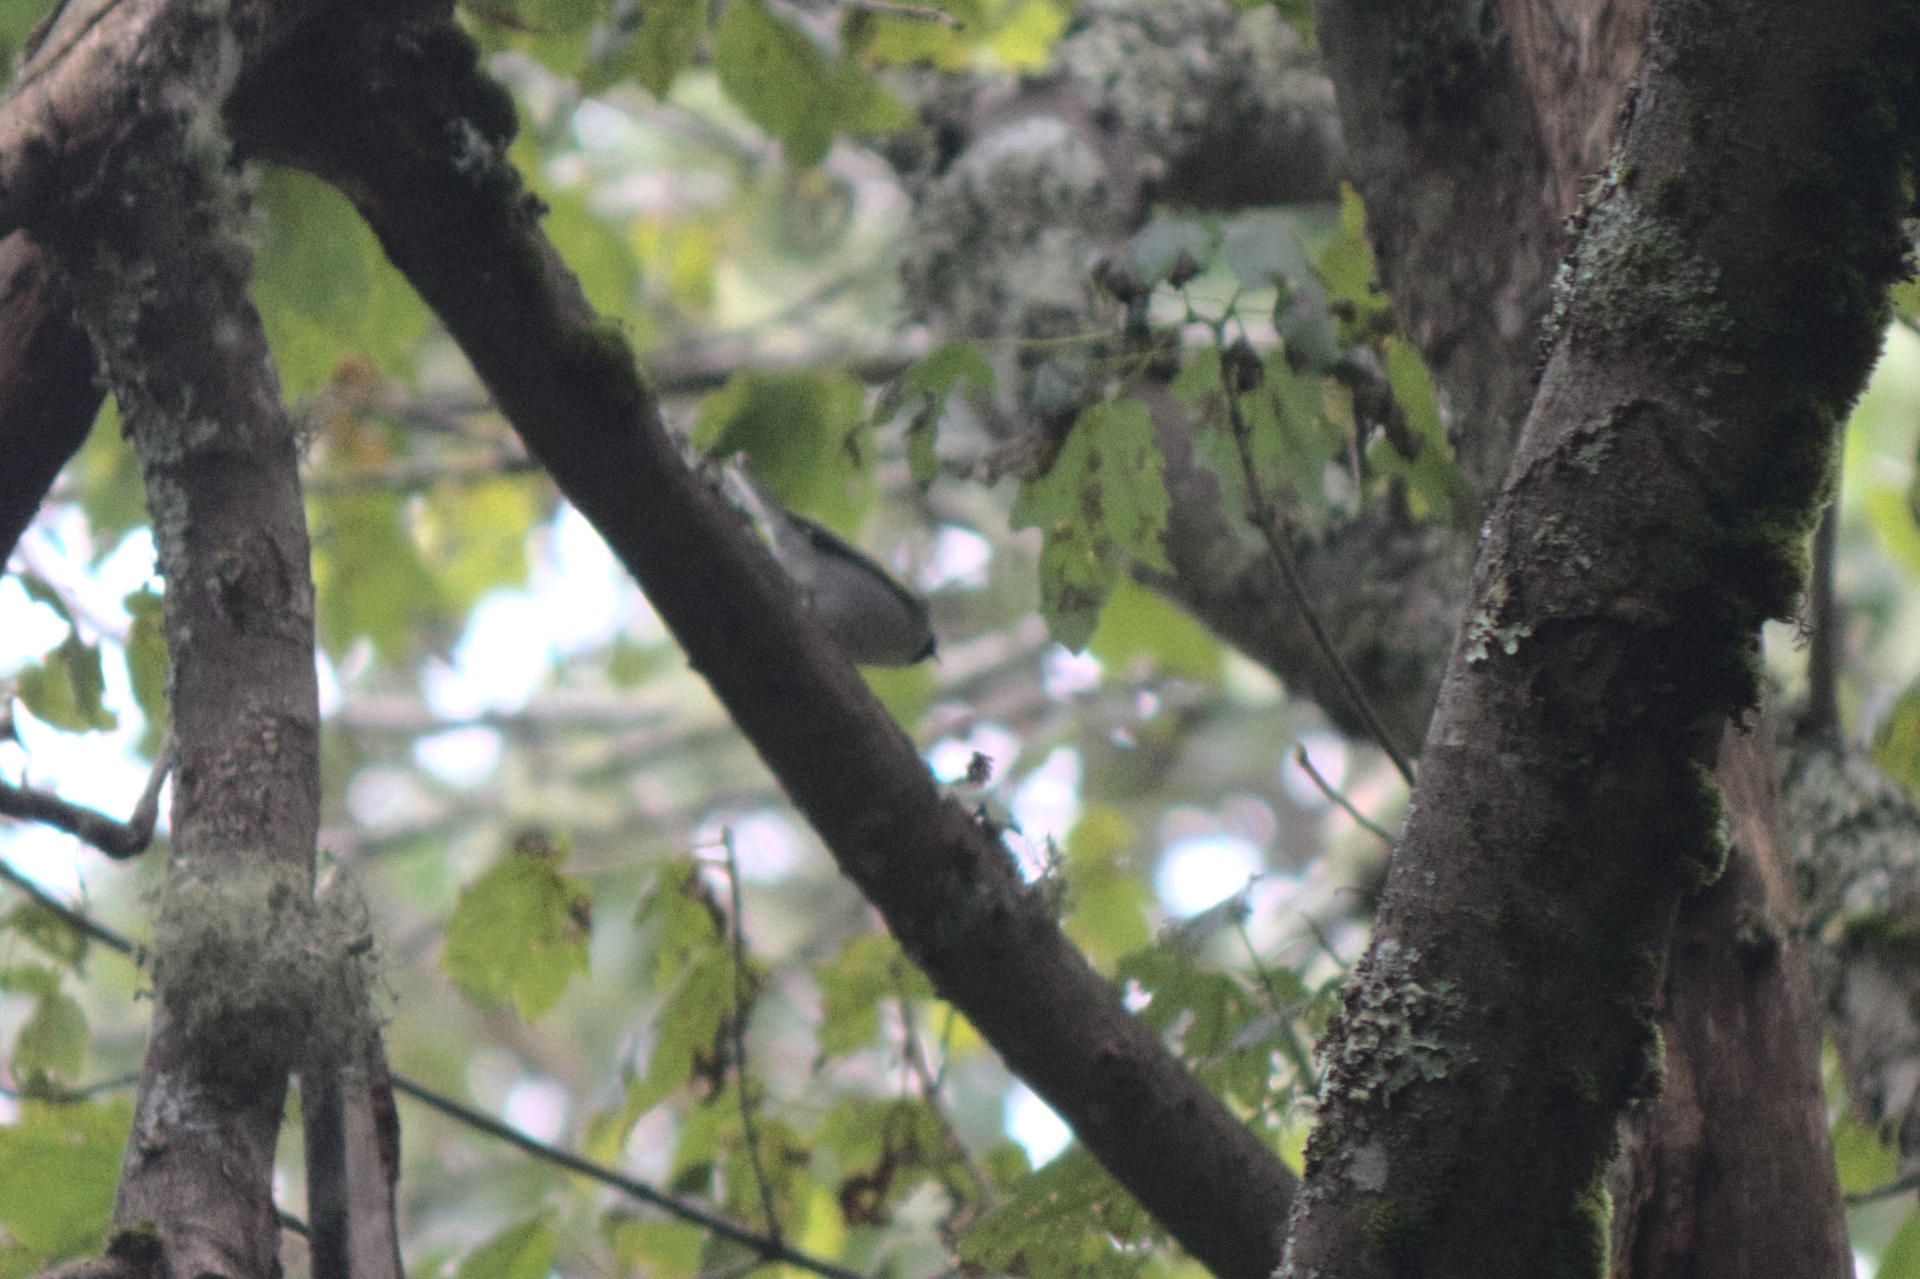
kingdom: Animalia
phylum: Chordata
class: Aves
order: Passeriformes
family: Parulidae
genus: Vermivora
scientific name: Vermivora chrysoptera
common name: Golden-winged warbler
